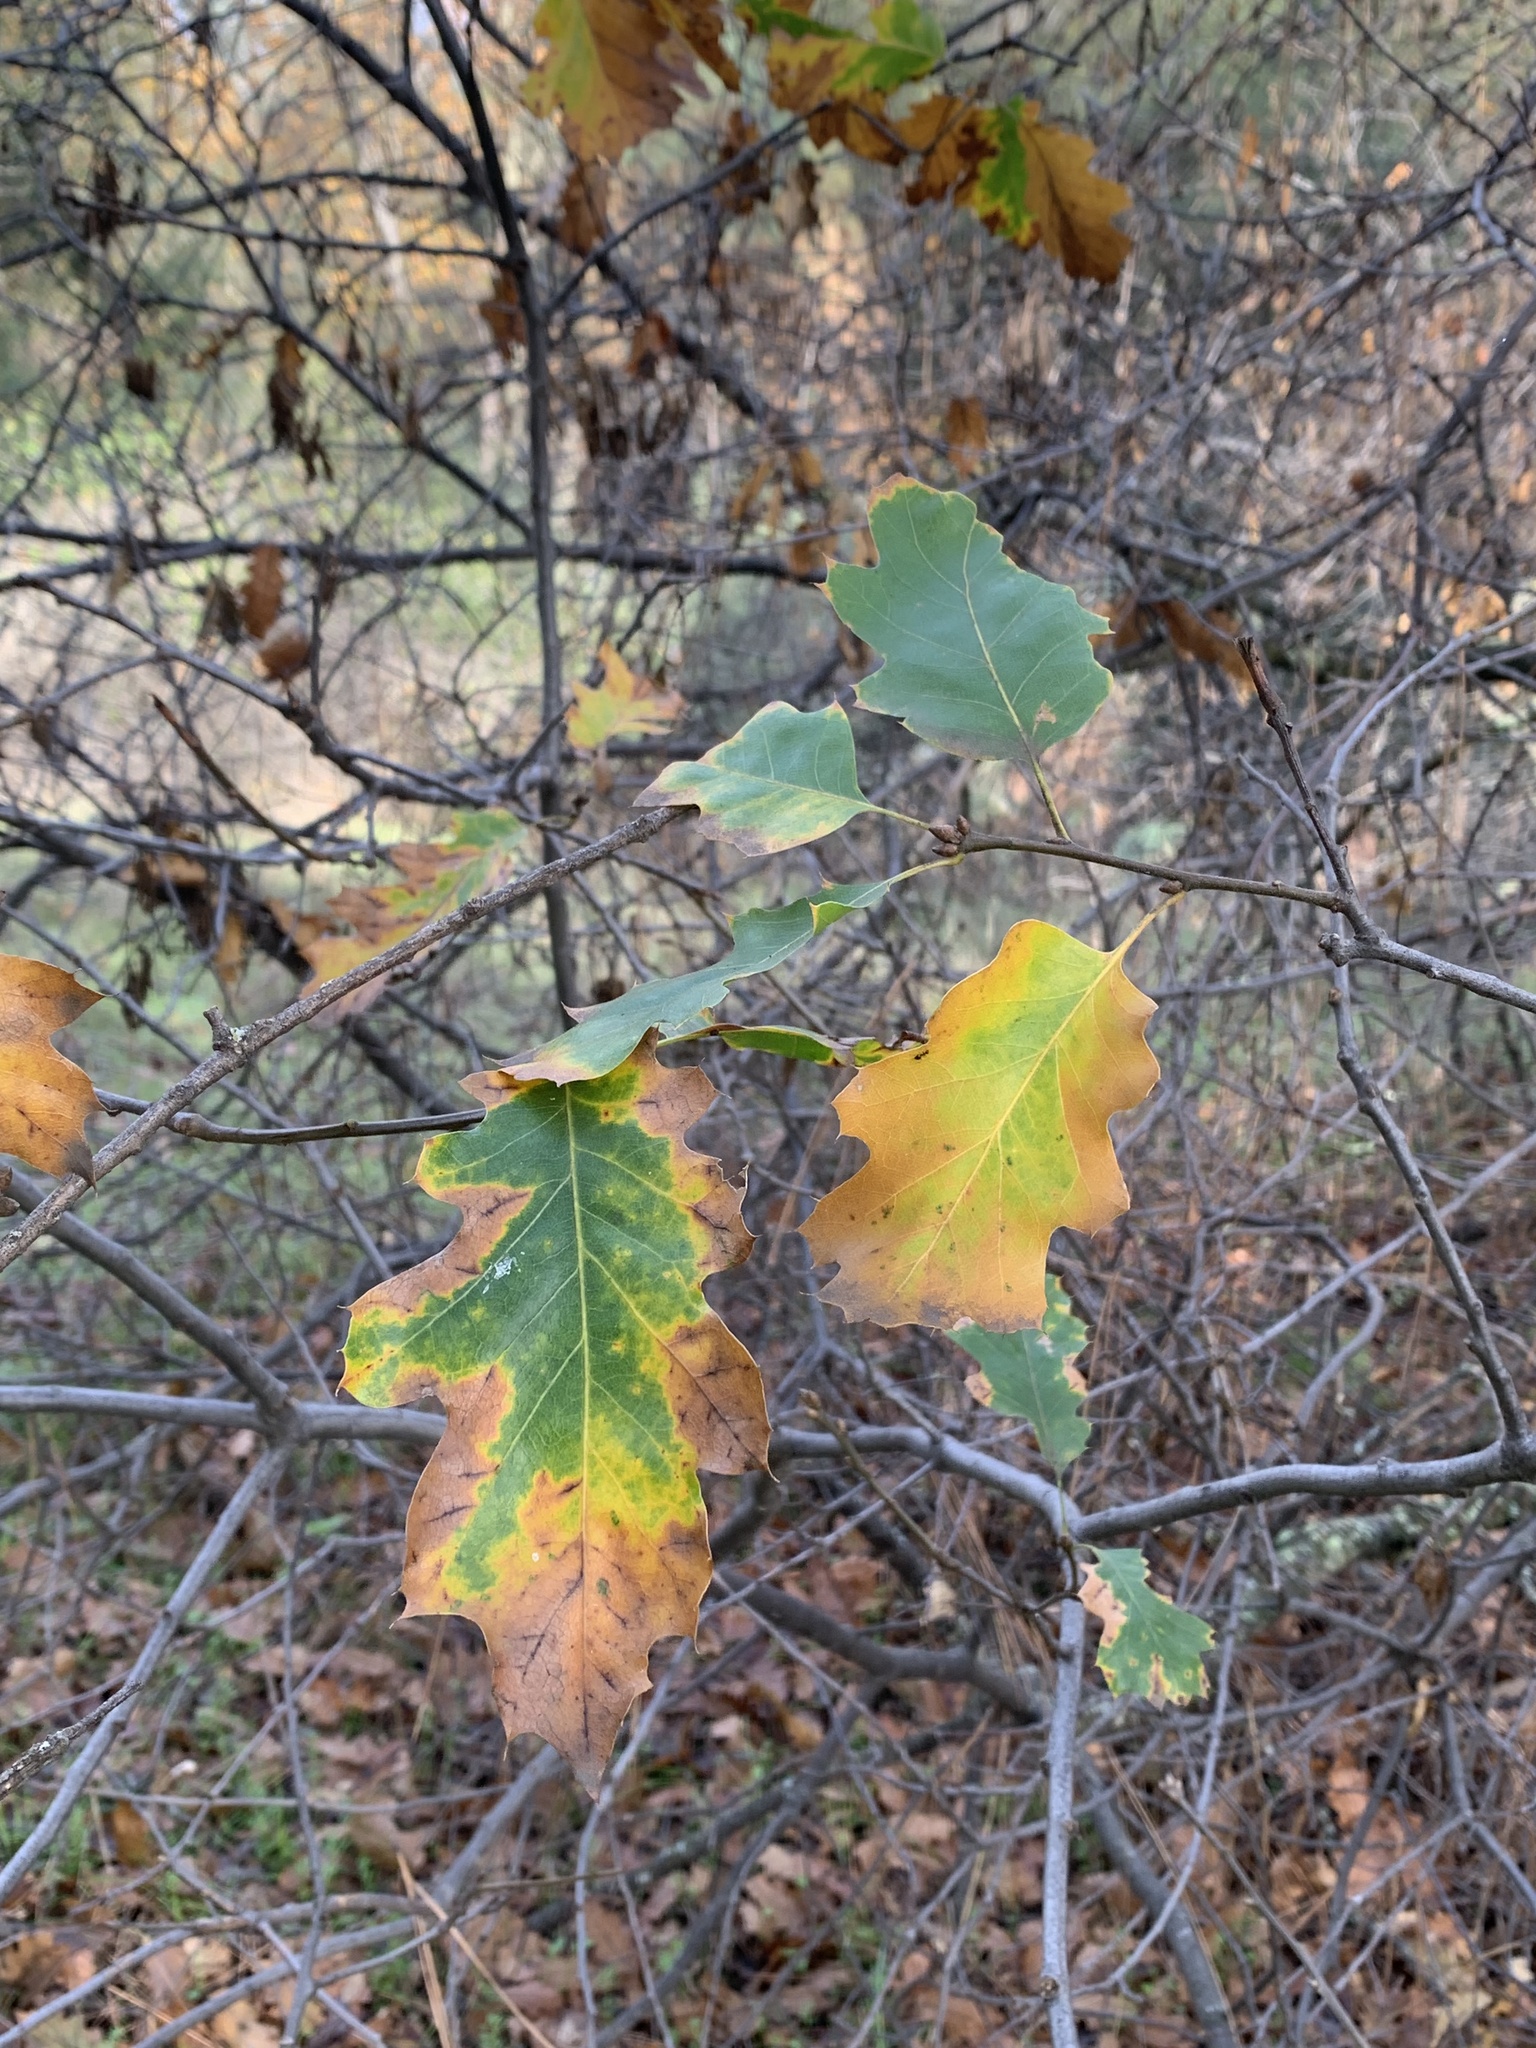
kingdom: Plantae
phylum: Tracheophyta
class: Magnoliopsida
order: Fagales
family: Fagaceae
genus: Quercus
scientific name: Quercus morehus
